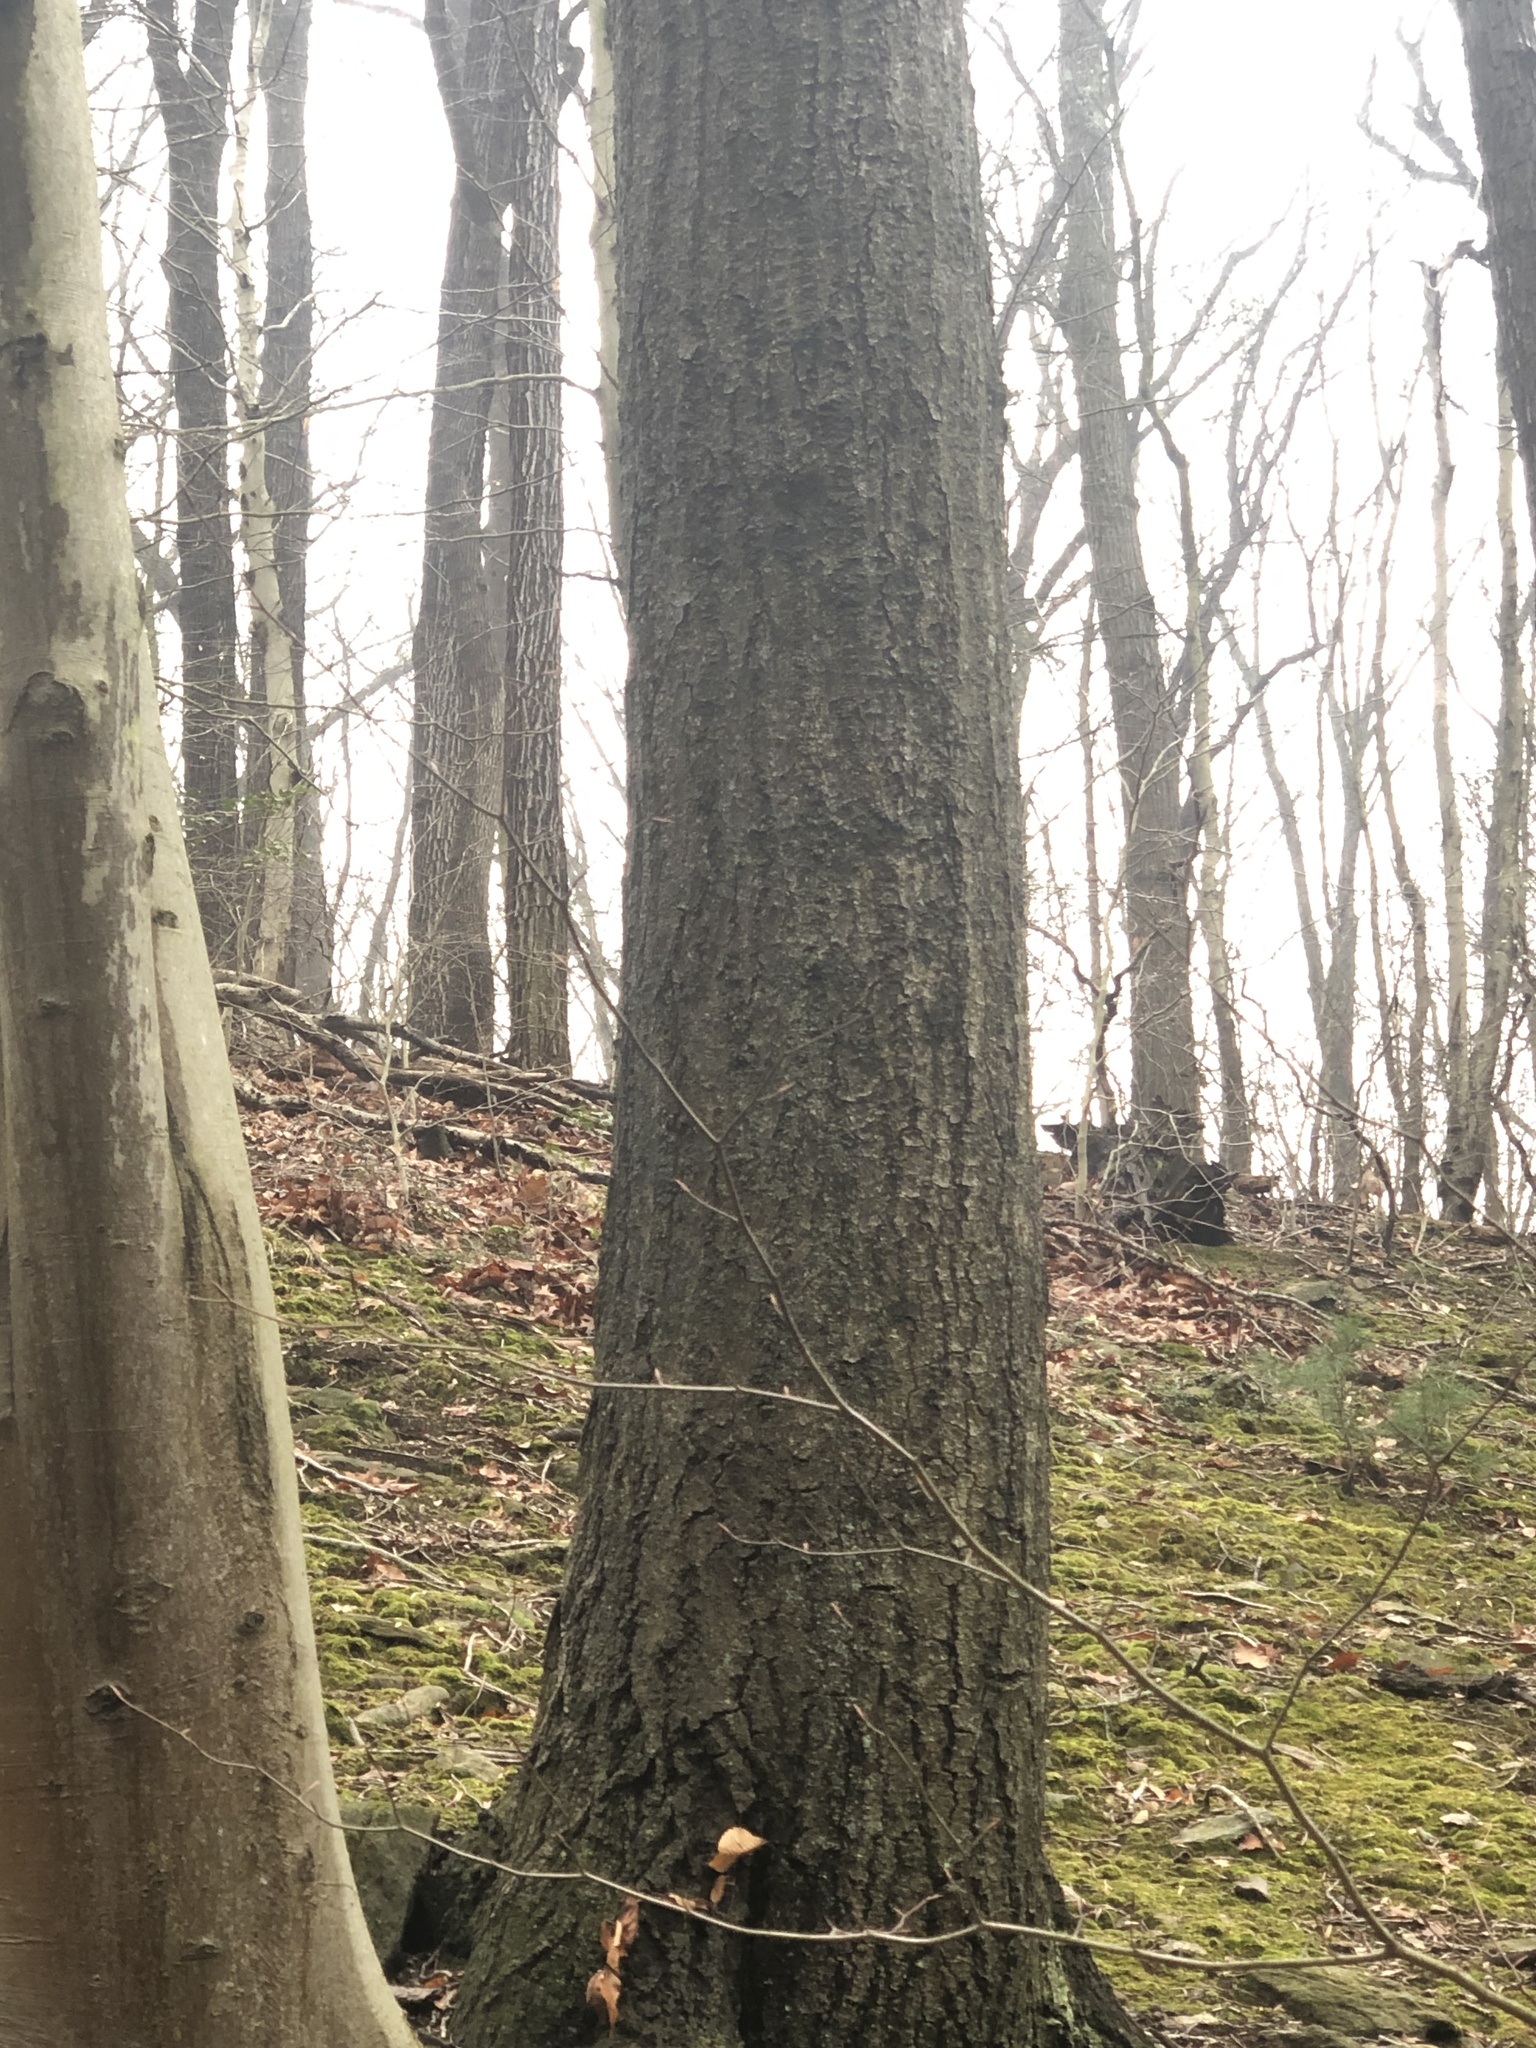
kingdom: Plantae
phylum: Tracheophyta
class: Magnoliopsida
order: Fagales
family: Fagaceae
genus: Quercus
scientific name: Quercus coccinea
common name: Scarlet oak
